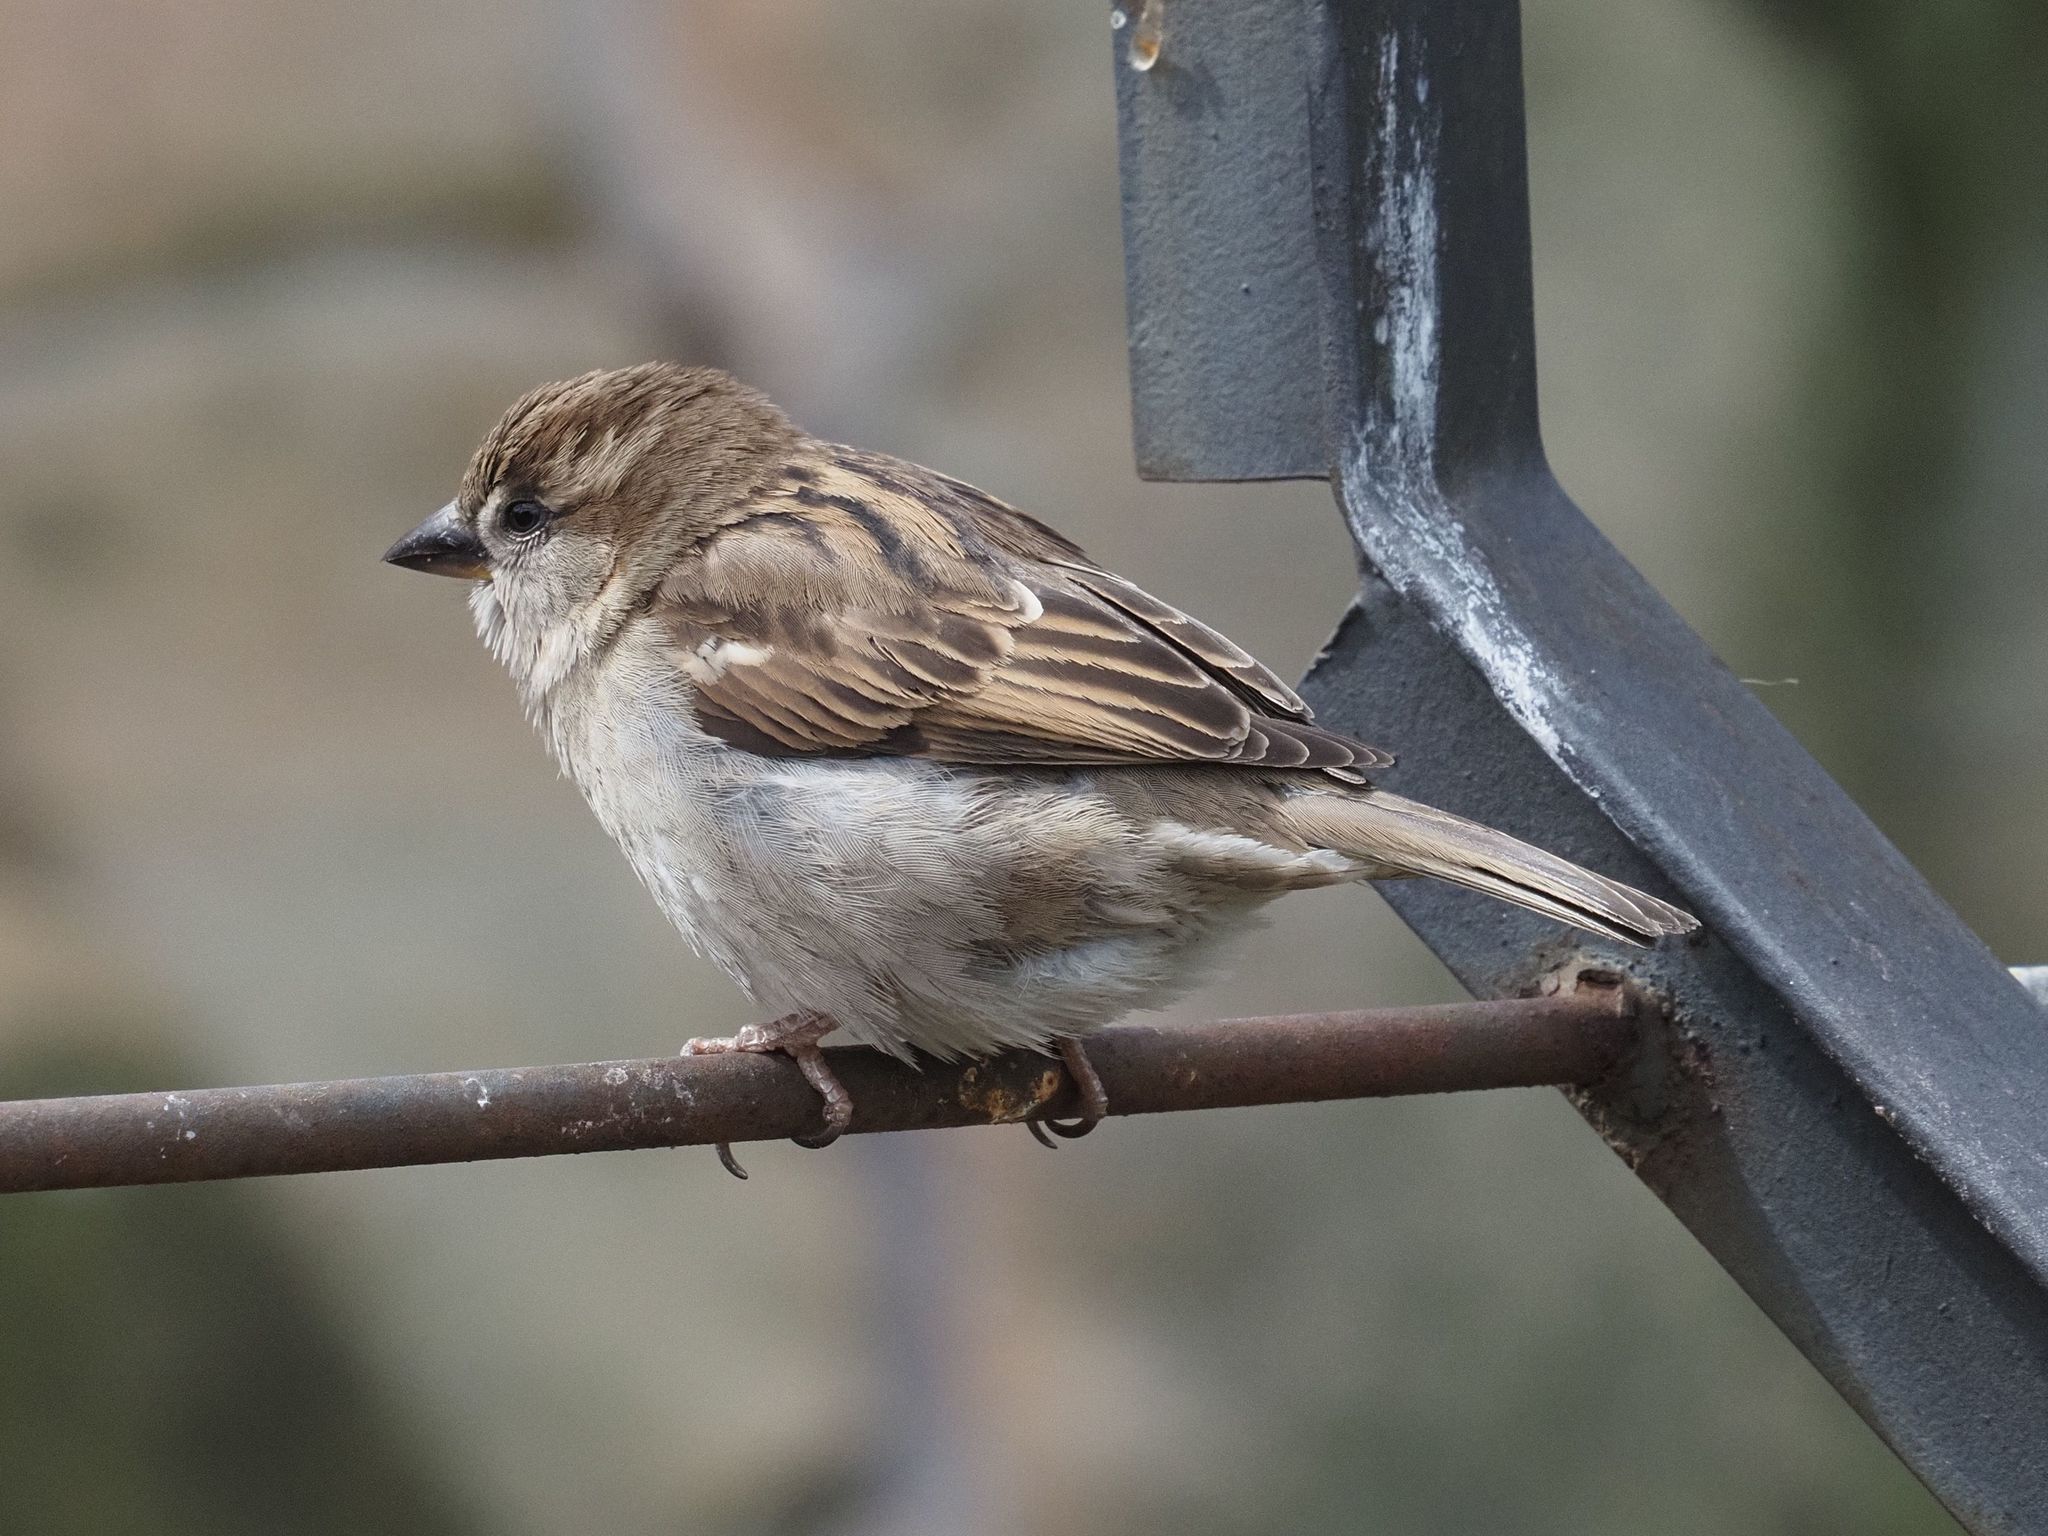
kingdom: Animalia
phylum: Chordata
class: Aves
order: Passeriformes
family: Passeridae
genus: Passer
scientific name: Passer domesticus
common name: House sparrow
